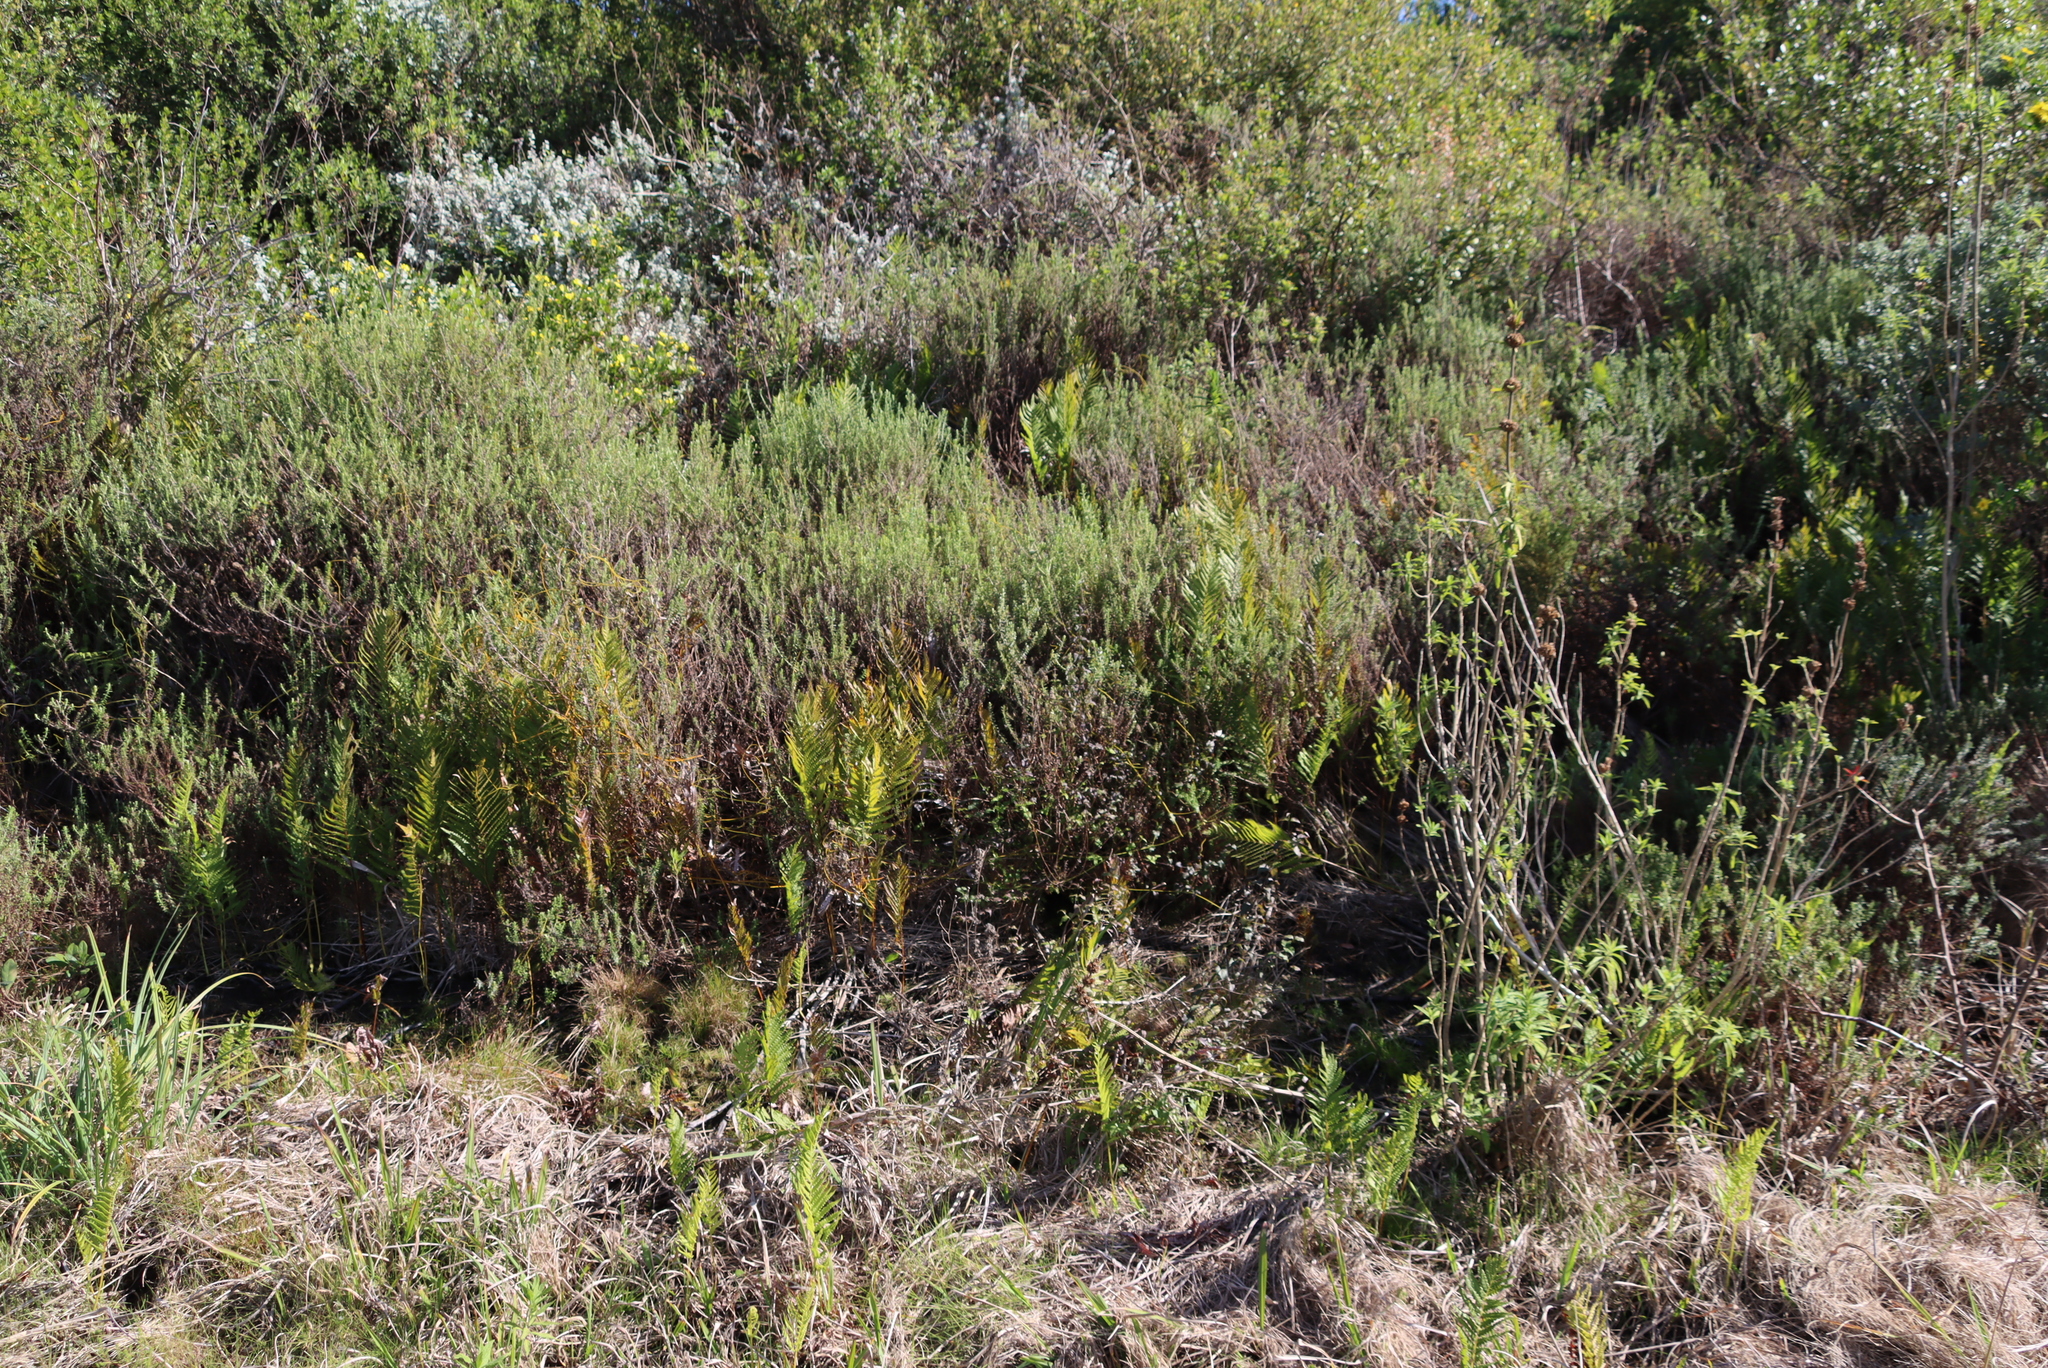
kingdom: Plantae
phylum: Tracheophyta
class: Polypodiopsida
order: Polypodiales
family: Thelypteridaceae
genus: Cyclosorus
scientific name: Cyclosorus interruptus
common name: Neke fern
